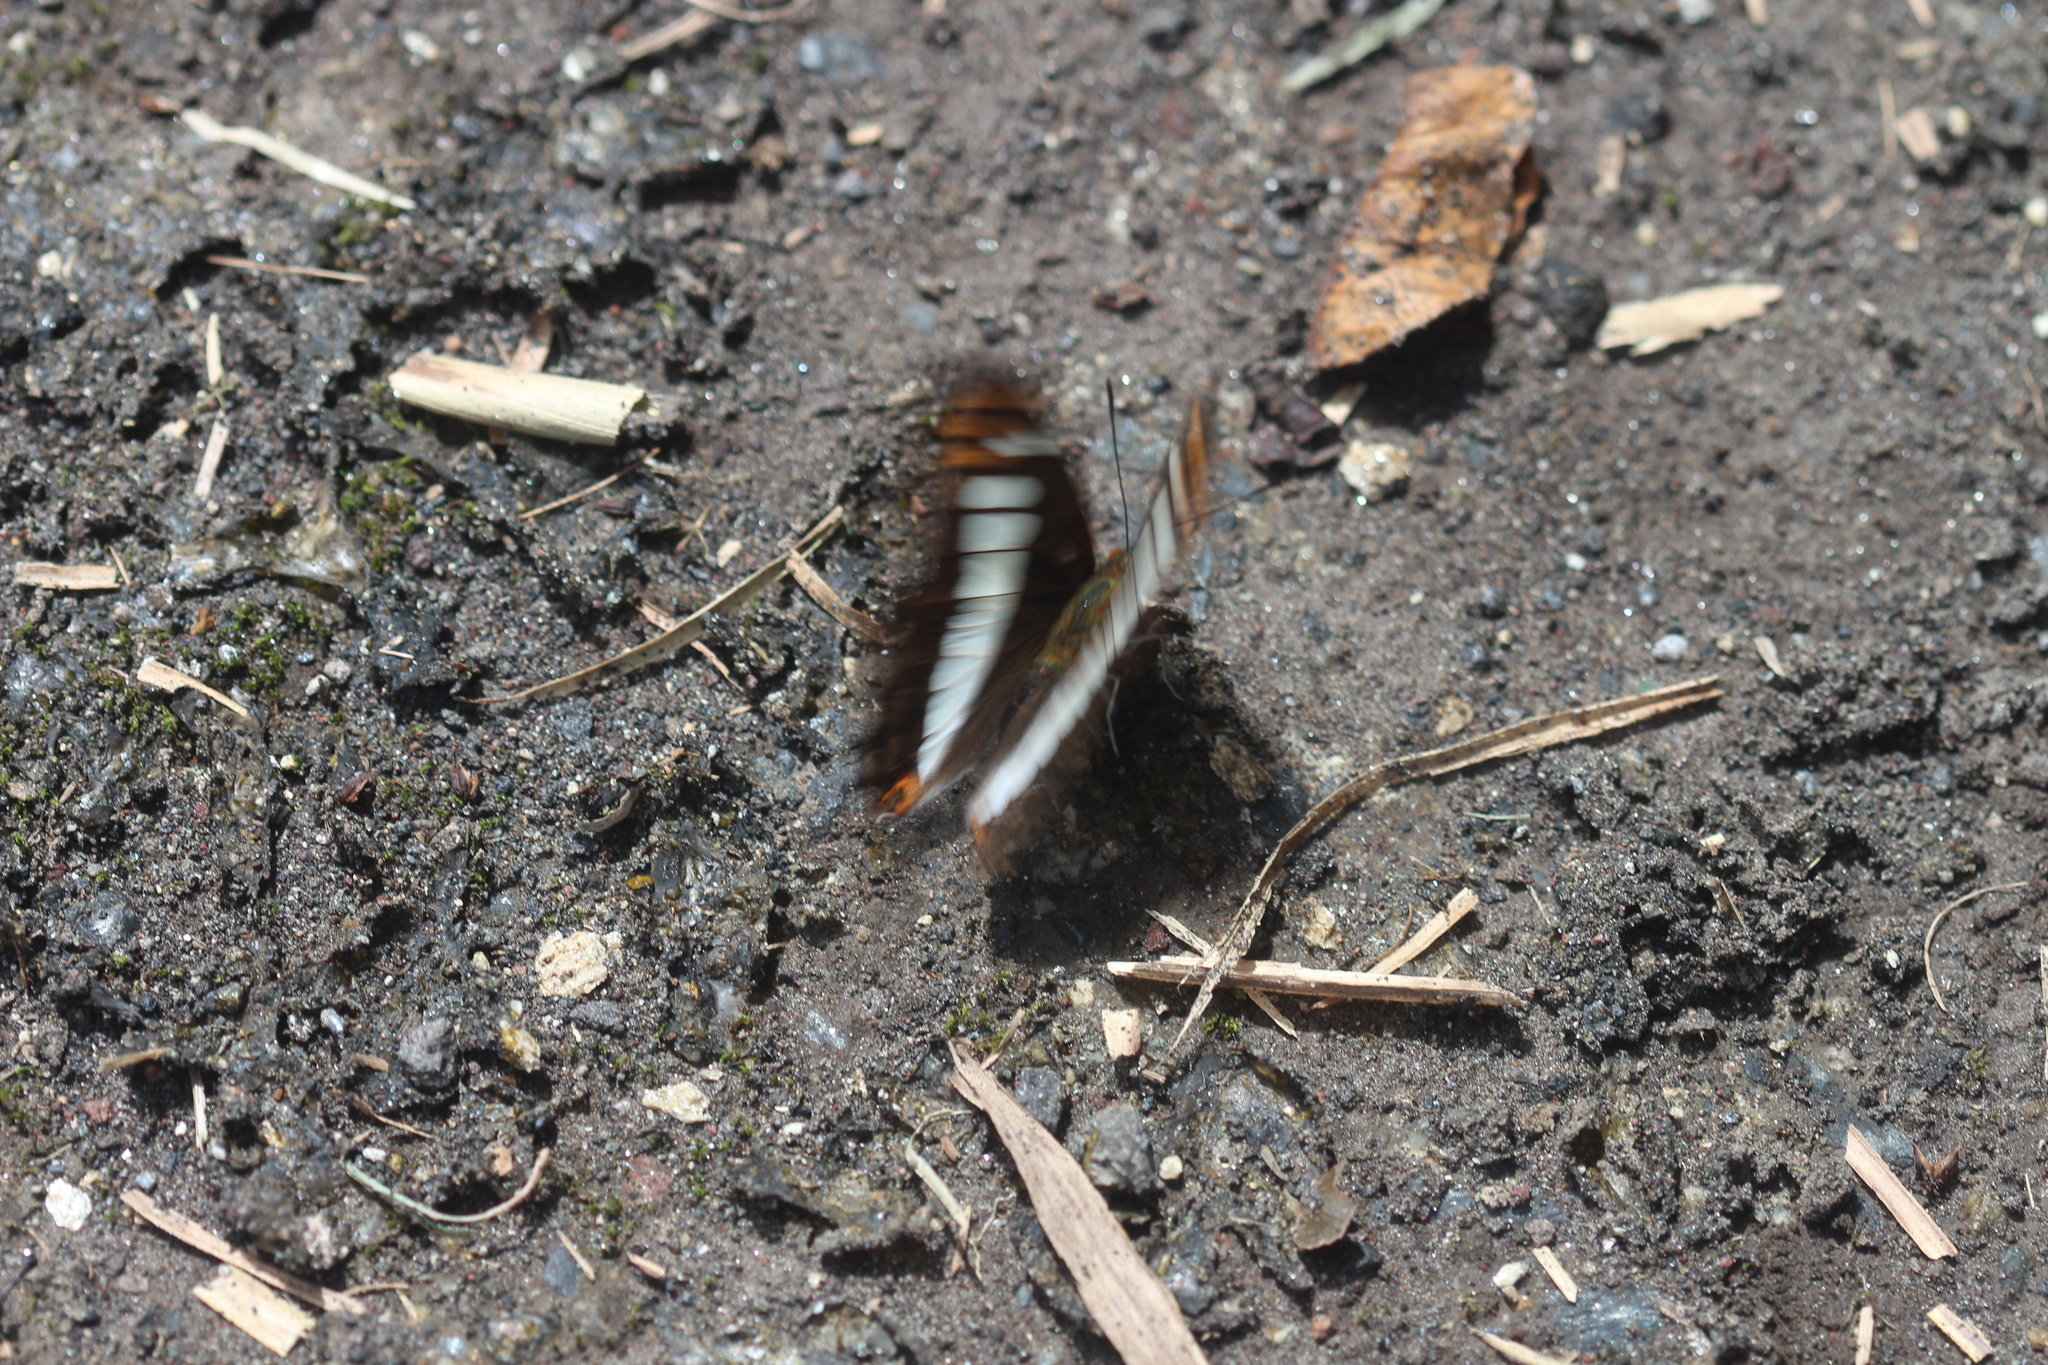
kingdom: Animalia
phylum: Arthropoda
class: Insecta
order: Lepidoptera
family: Nymphalidae
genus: Limenitis
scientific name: Limenitis alala
